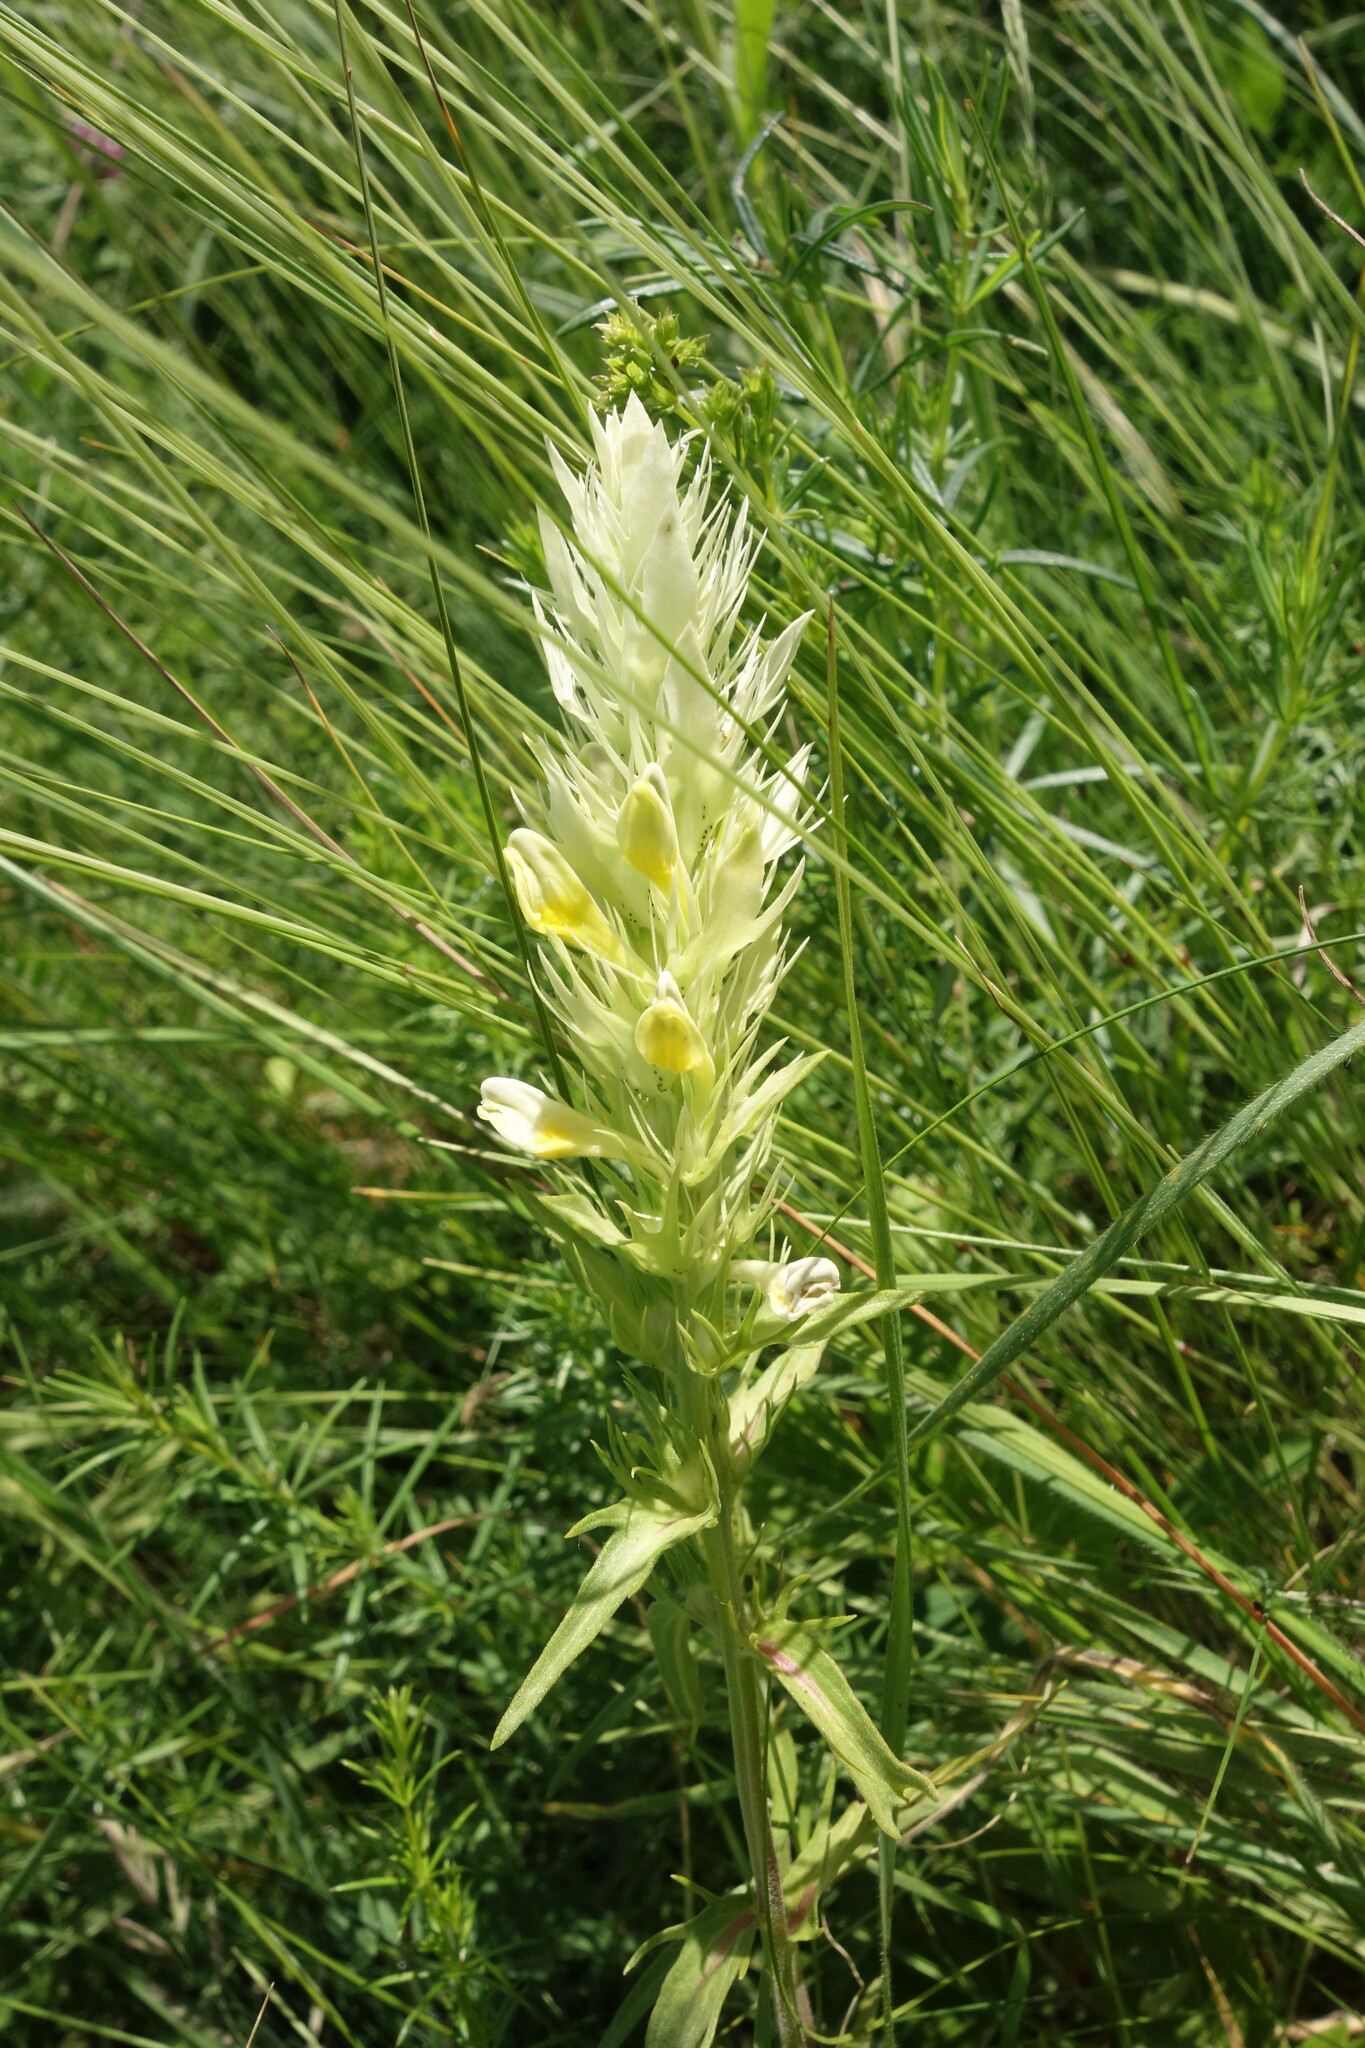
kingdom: Plantae
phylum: Tracheophyta
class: Magnoliopsida
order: Lamiales
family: Orobanchaceae
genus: Melampyrum
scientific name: Melampyrum arvense
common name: Field cow-wheat
